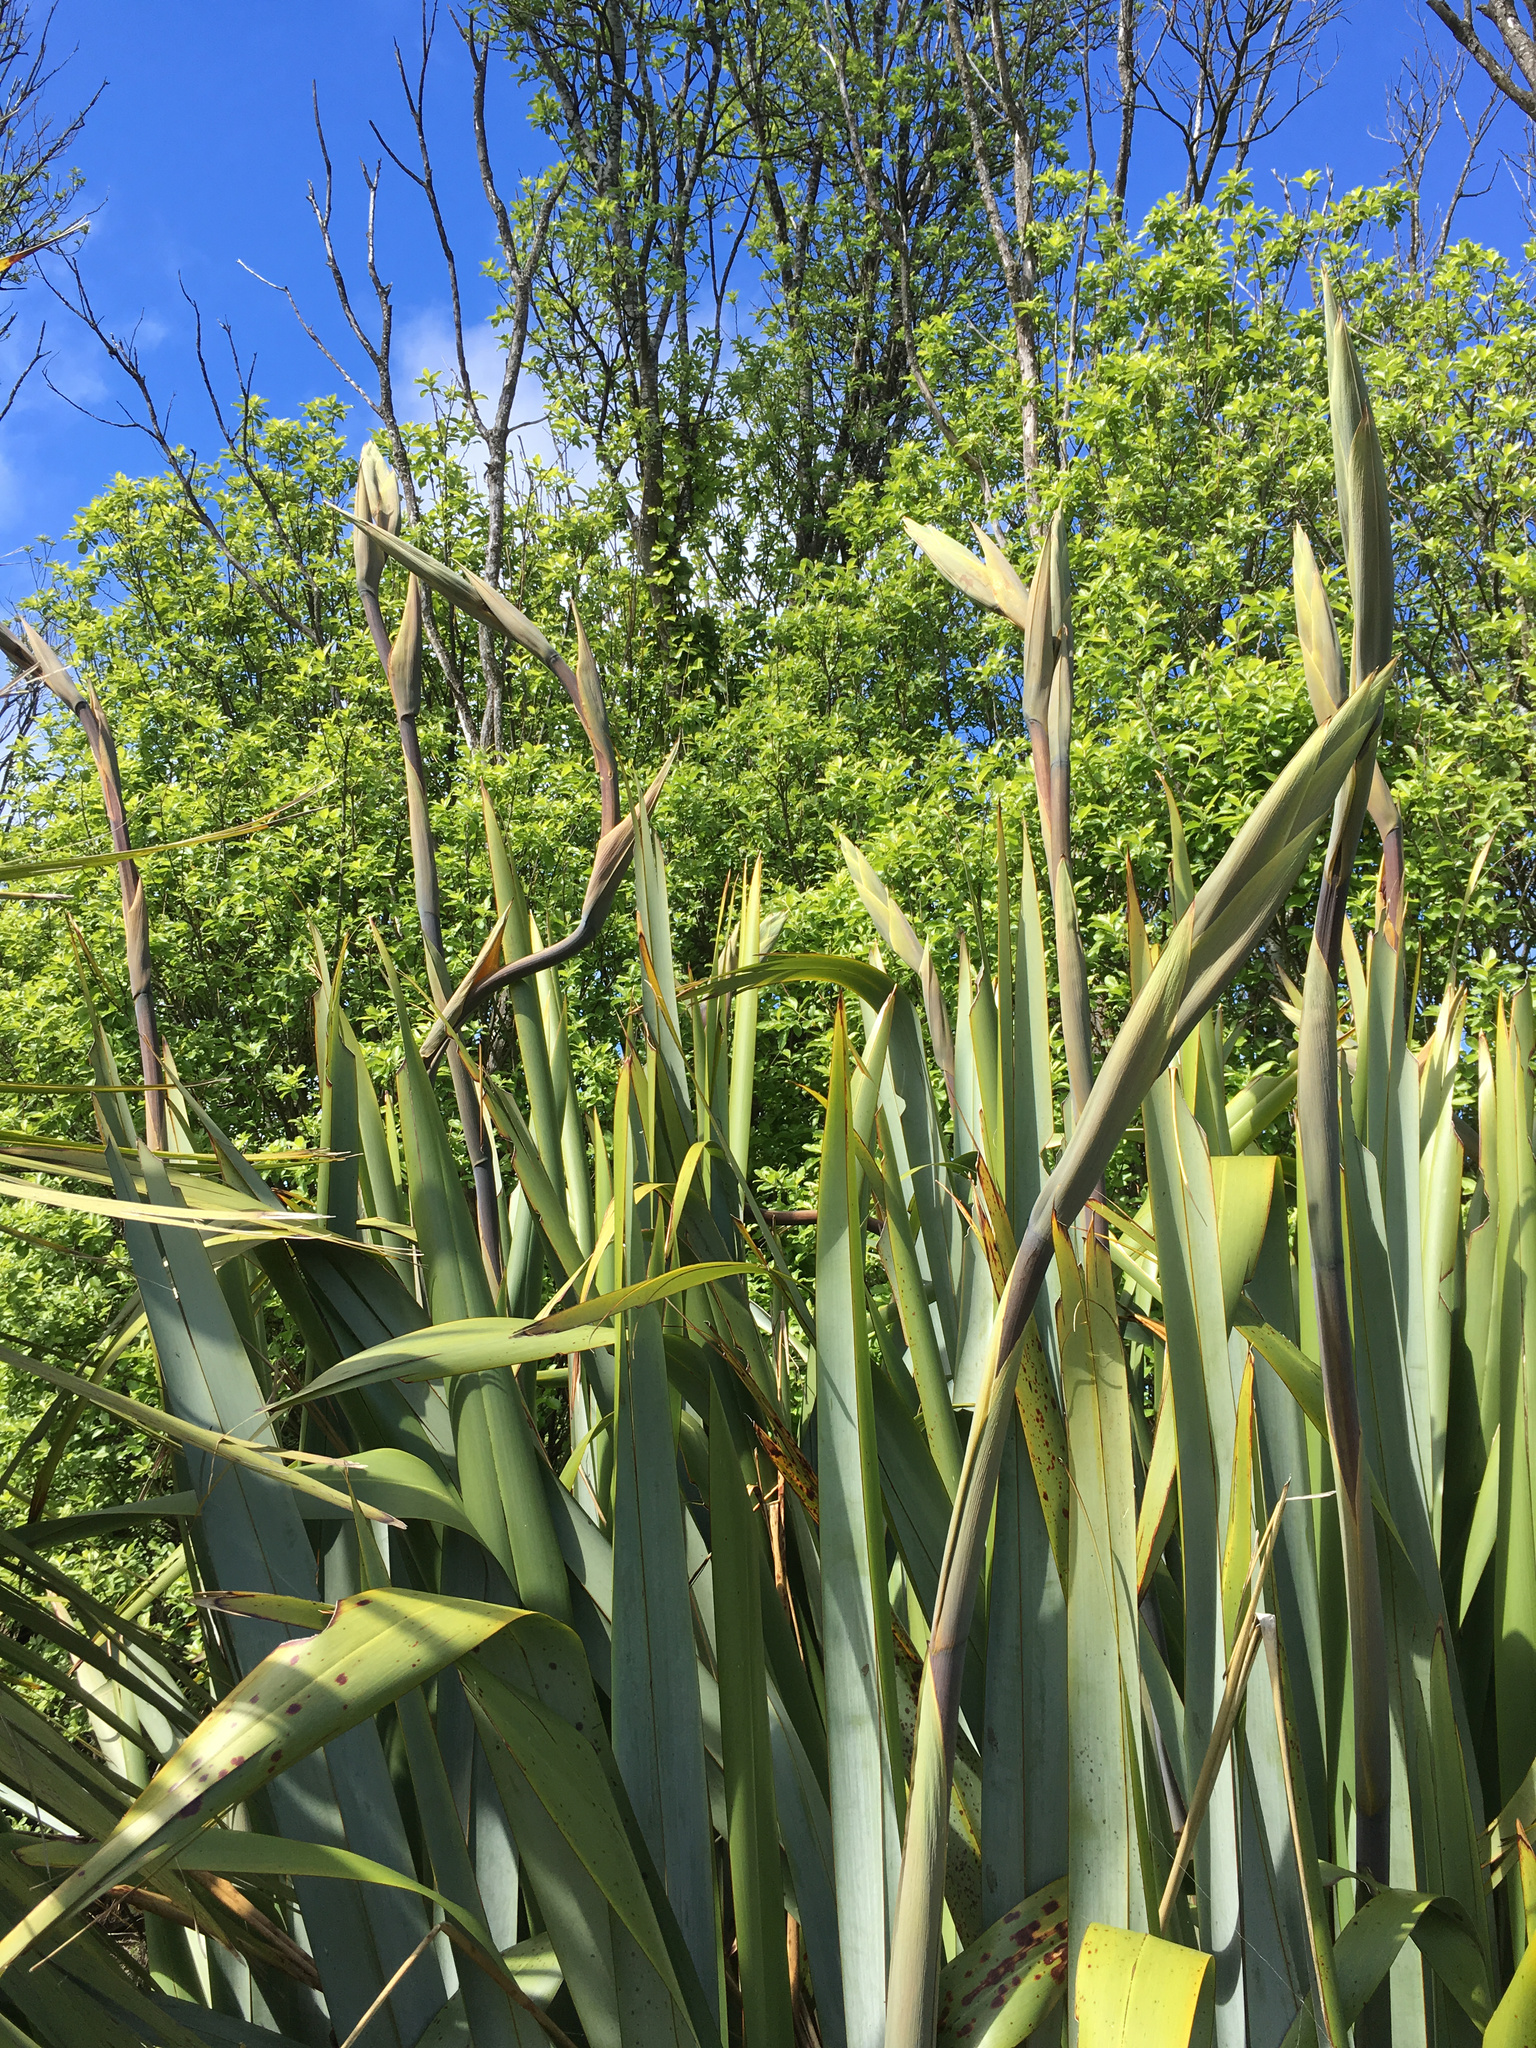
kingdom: Plantae
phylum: Tracheophyta
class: Liliopsida
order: Asparagales
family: Asphodelaceae
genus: Phormium
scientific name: Phormium tenax
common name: New zealand flax
